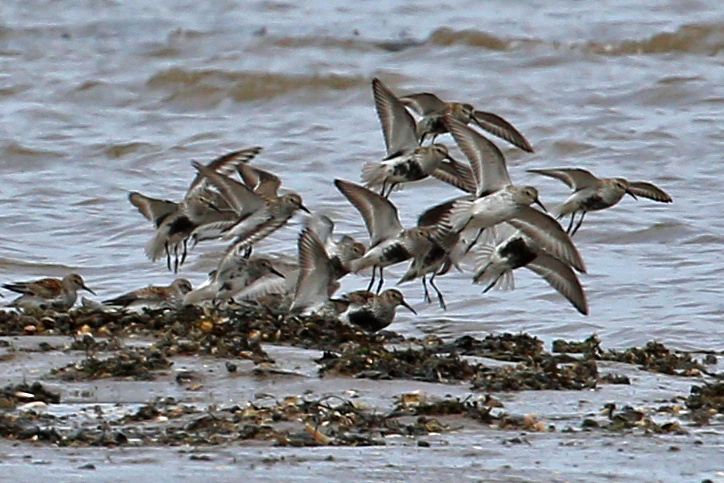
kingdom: Animalia
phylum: Chordata
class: Aves
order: Charadriiformes
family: Scolopacidae
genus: Calidris
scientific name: Calidris alpina
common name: Dunlin
